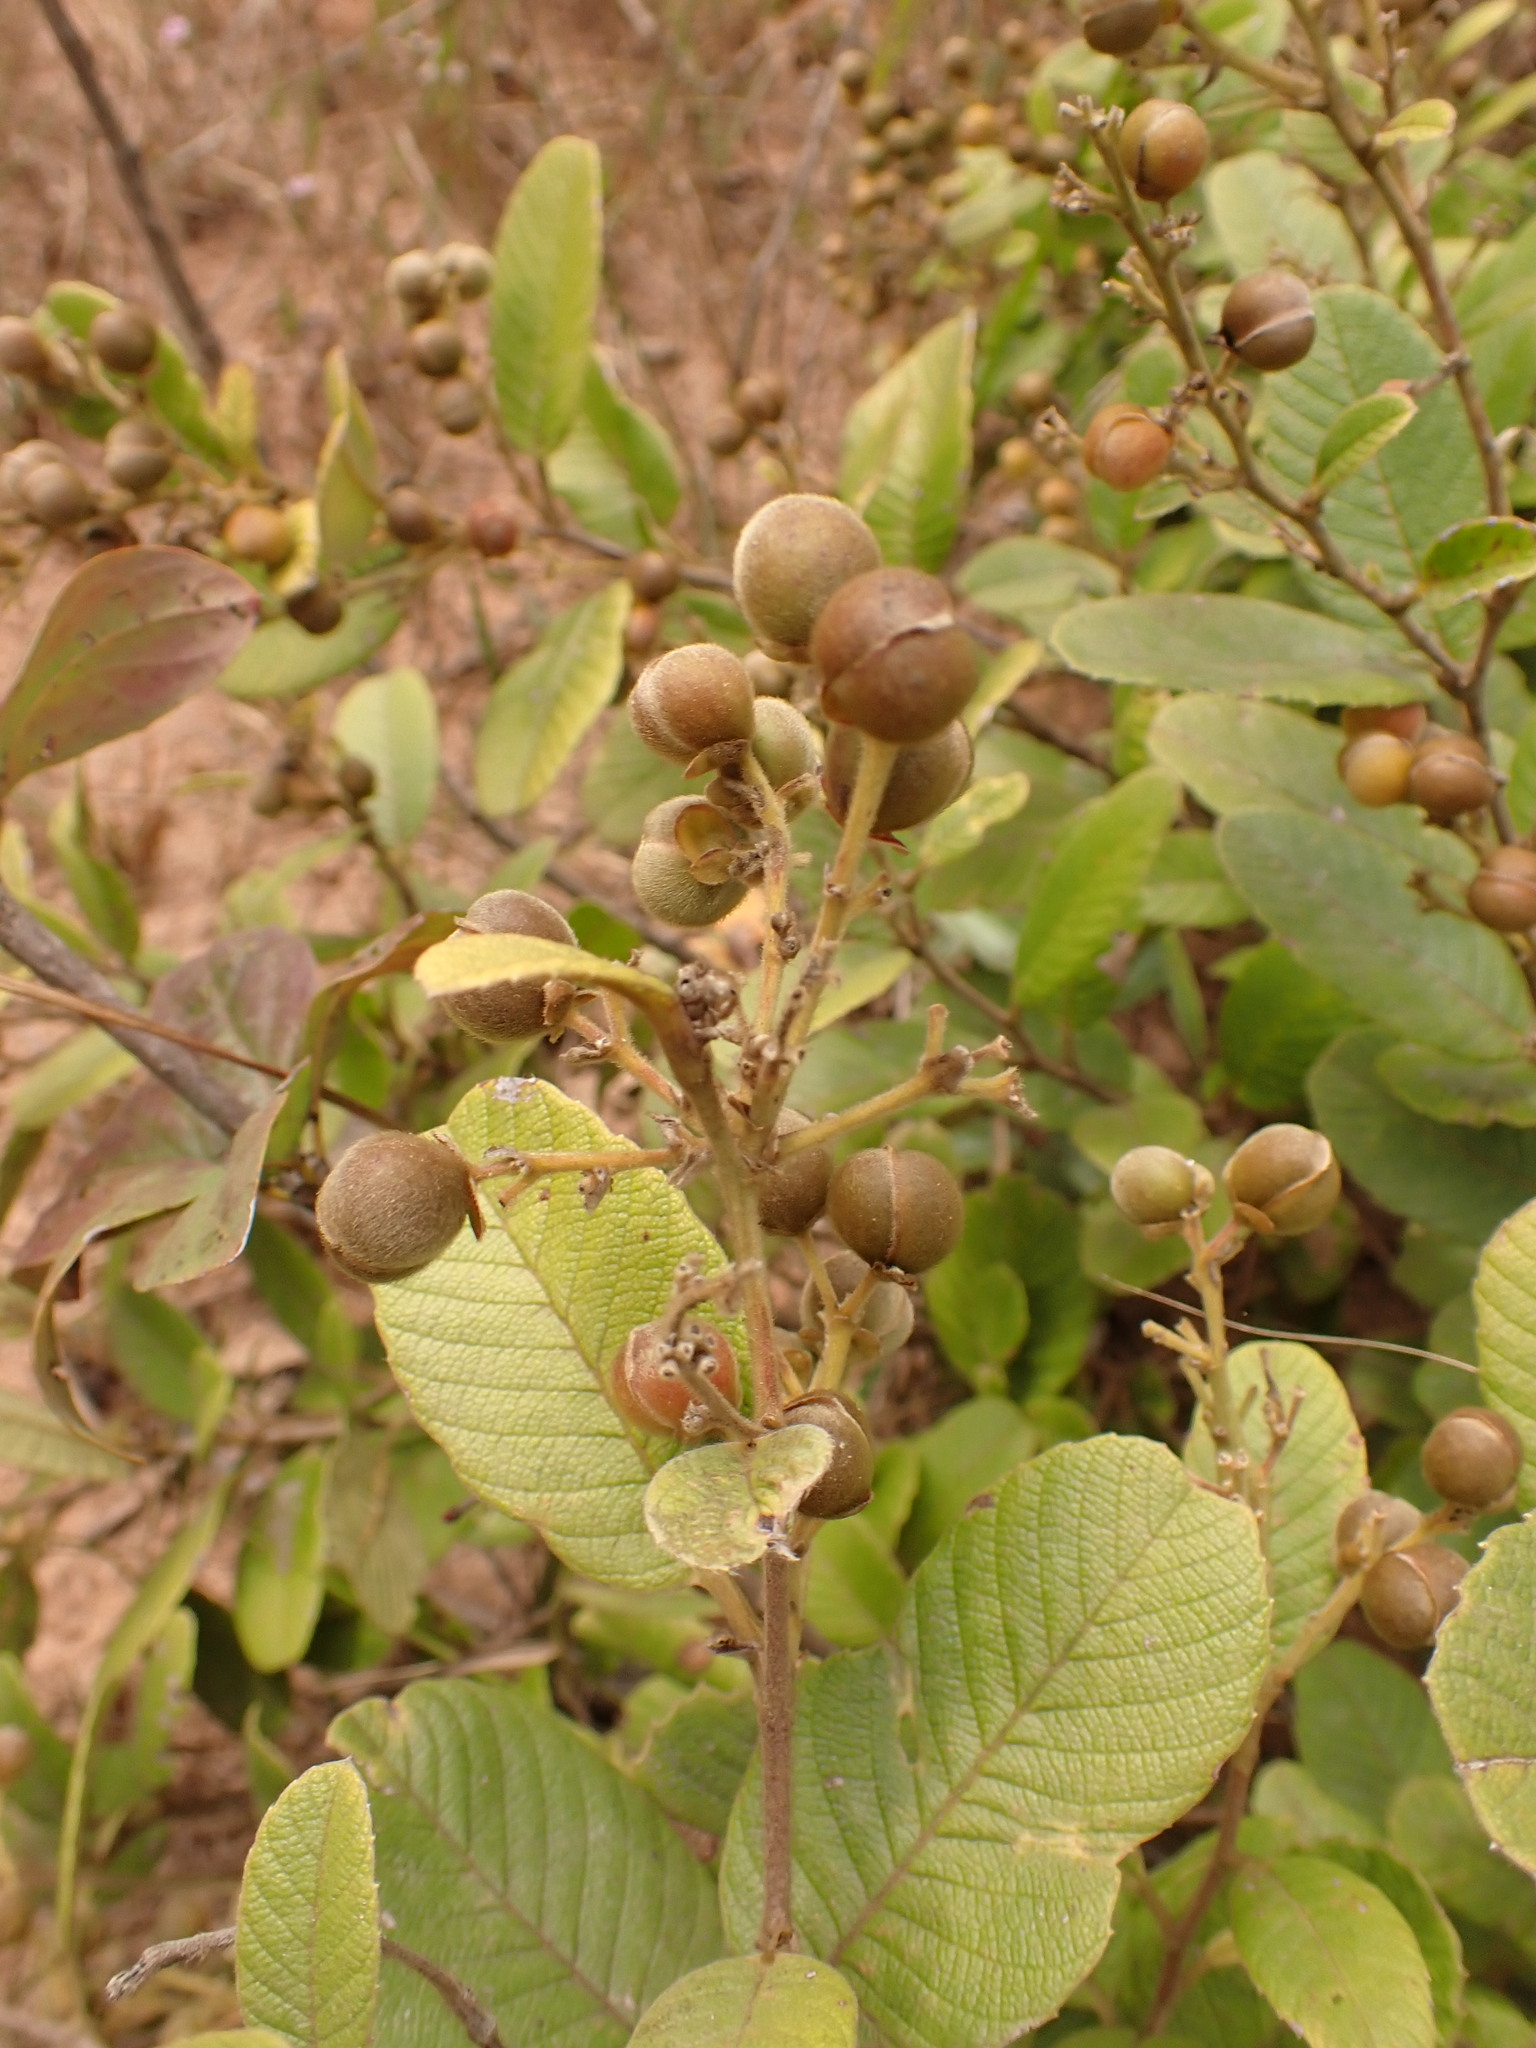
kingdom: Plantae
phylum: Tracheophyta
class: Magnoliopsida
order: Dilleniales
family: Dilleniaceae
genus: Davilla
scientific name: Davilla elliptica
